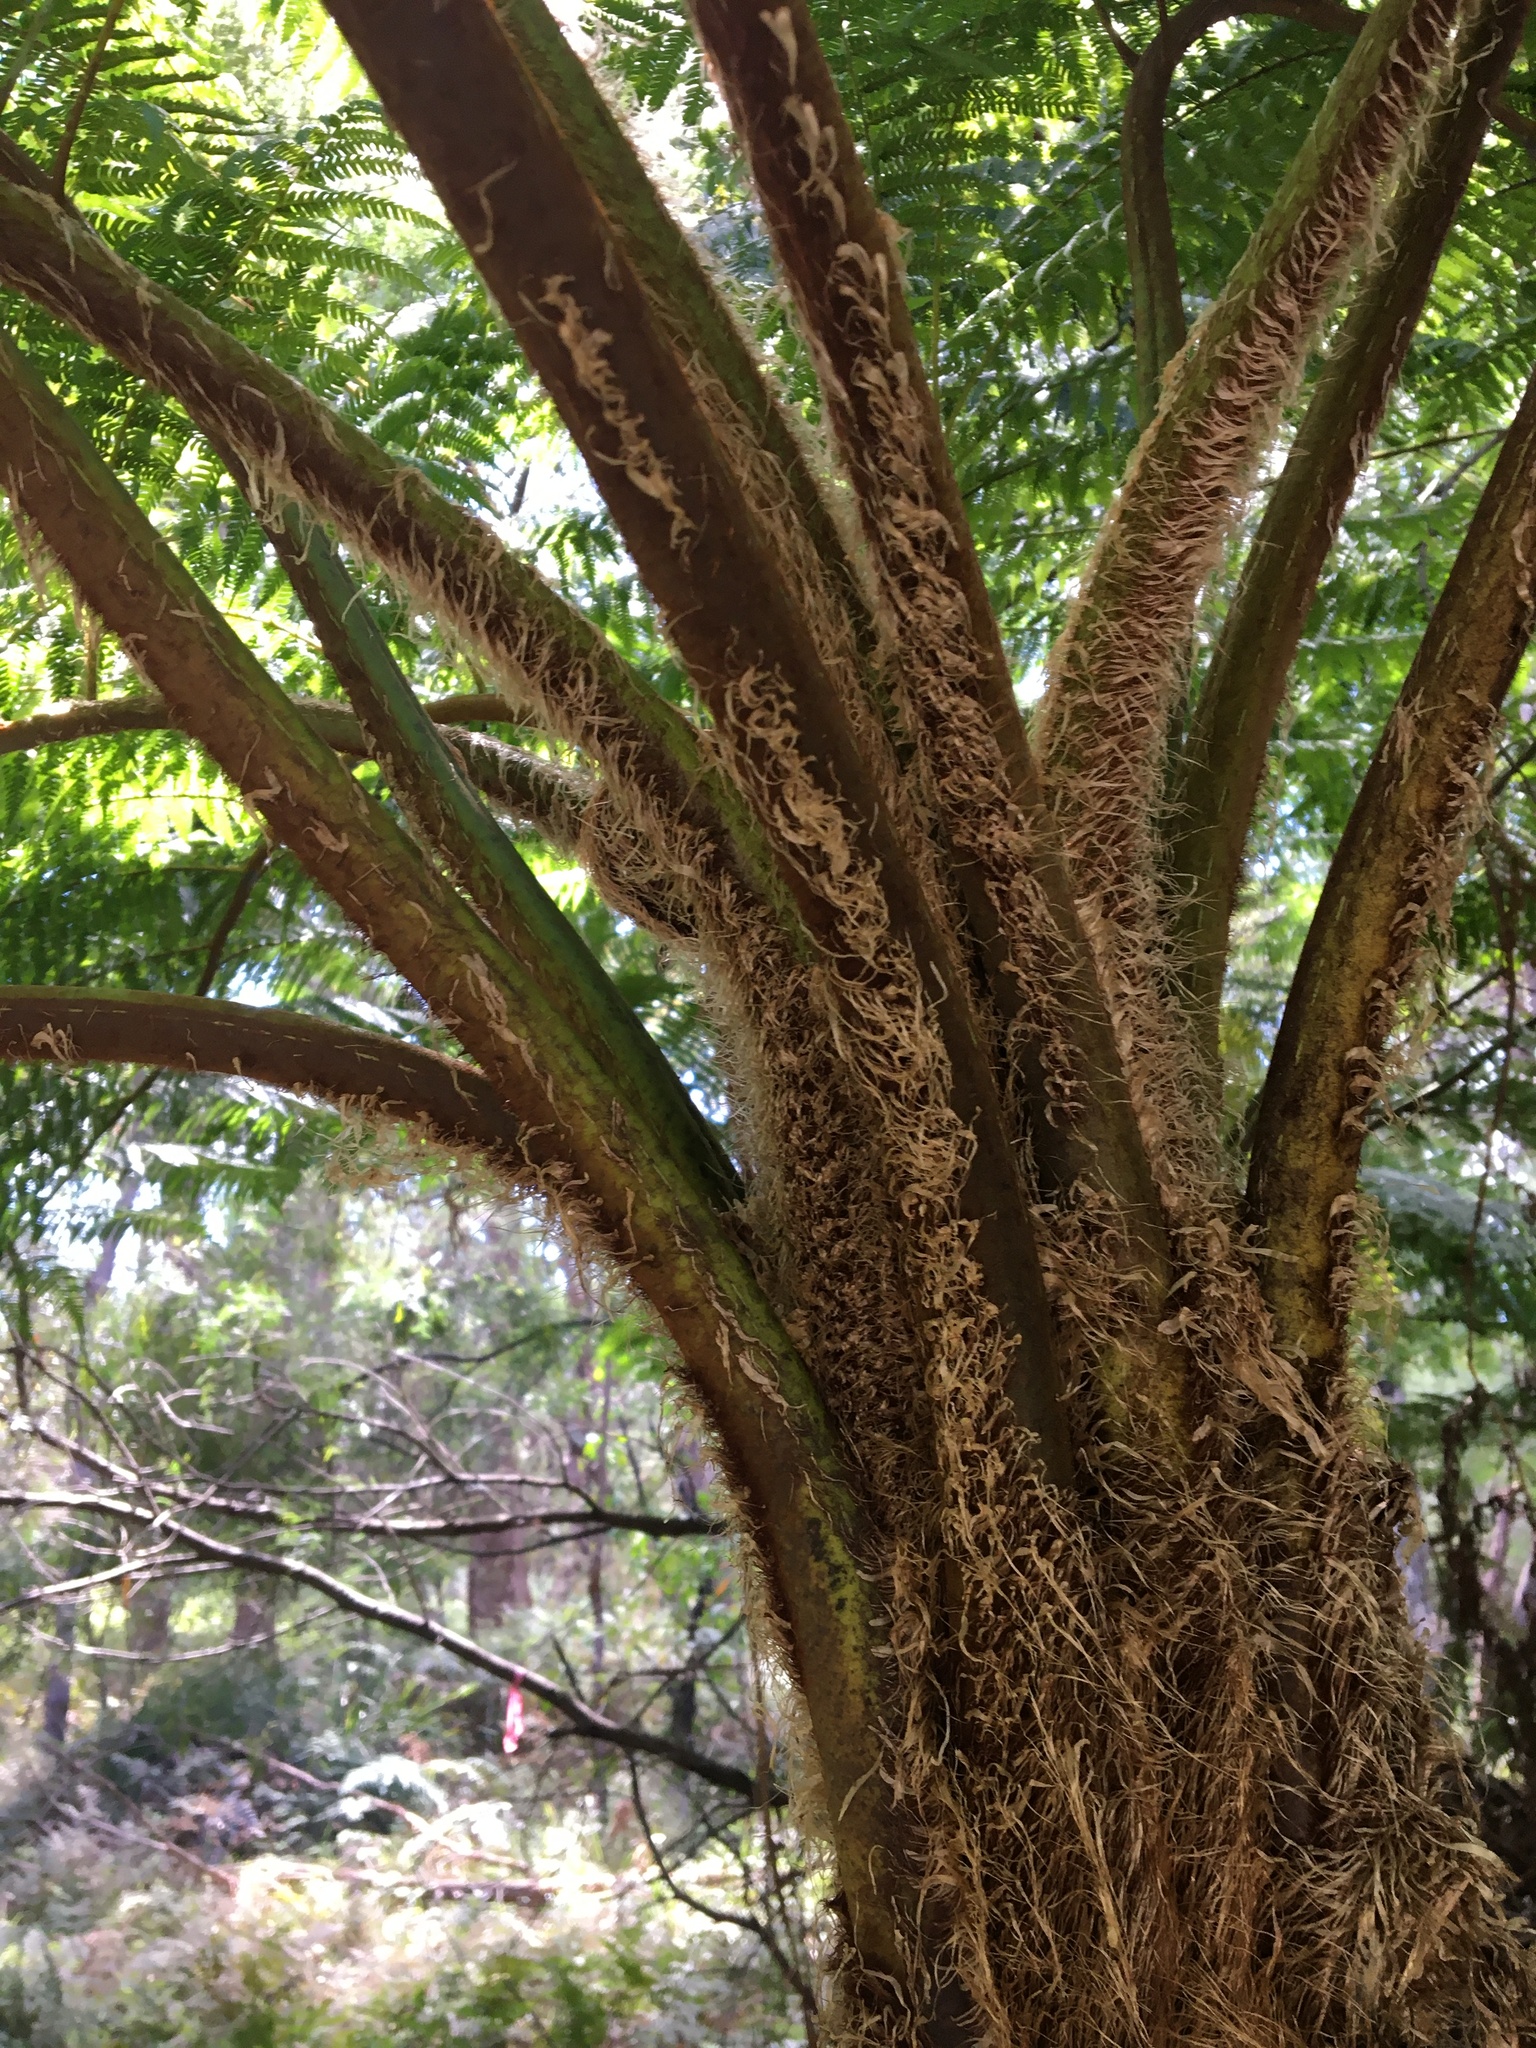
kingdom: Plantae
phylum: Tracheophyta
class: Polypodiopsida
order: Cyatheales
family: Cyatheaceae
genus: Sphaeropteris
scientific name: Sphaeropteris cooperi
